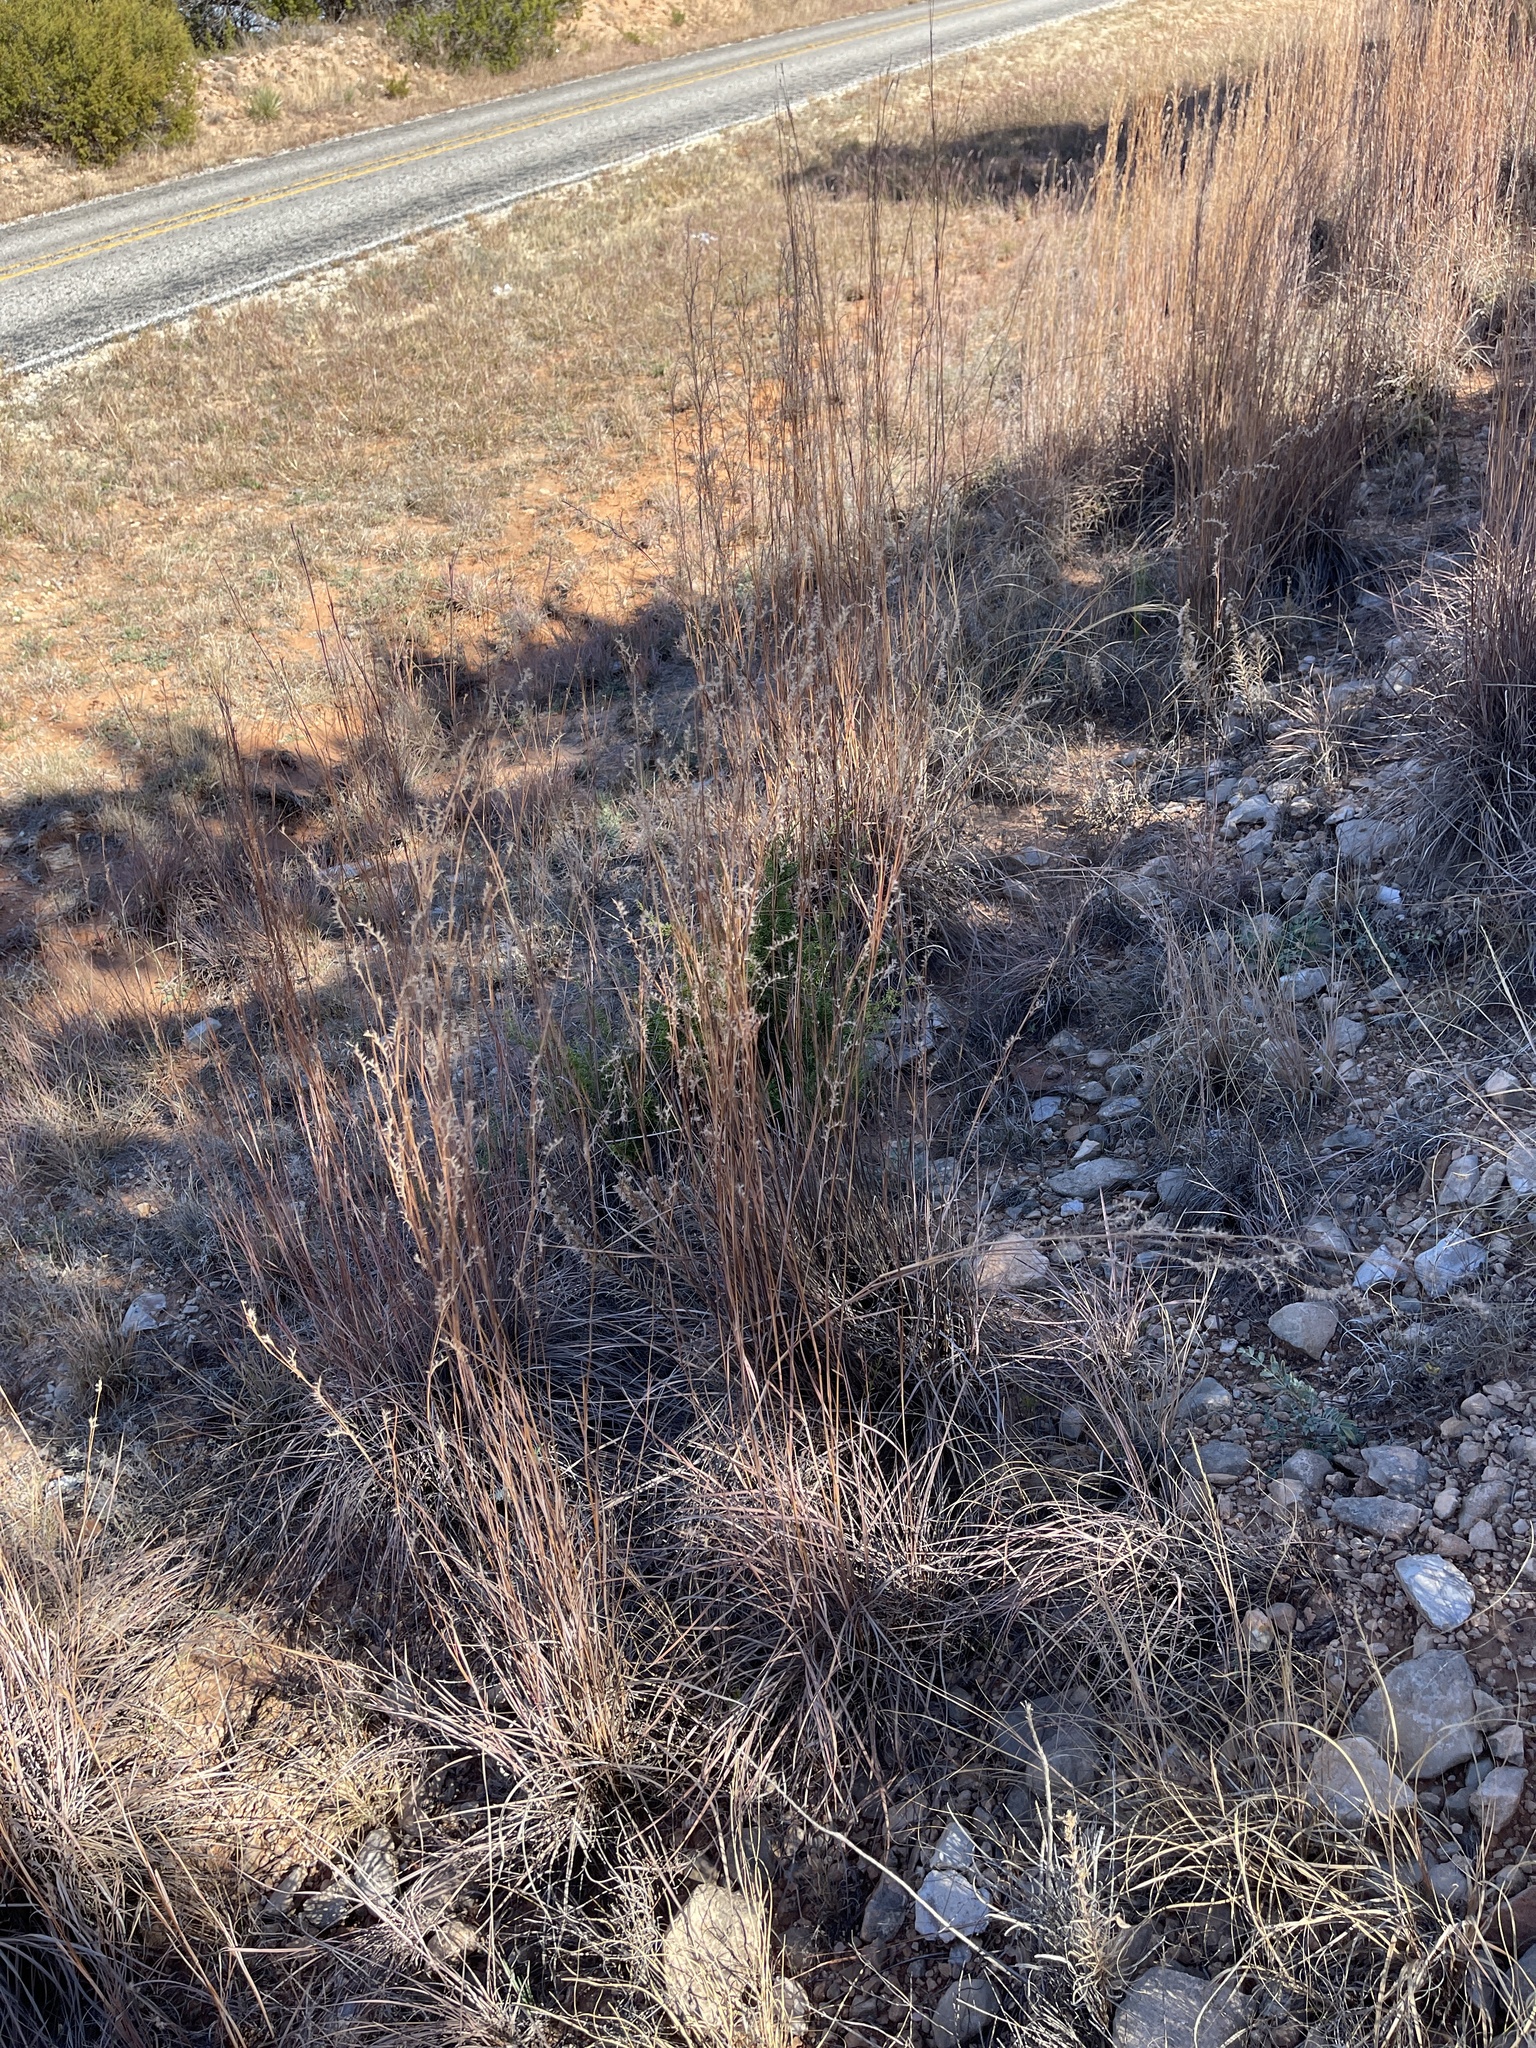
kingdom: Plantae
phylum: Tracheophyta
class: Liliopsida
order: Poales
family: Poaceae
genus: Schizachyrium
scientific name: Schizachyrium scoparium
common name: Little bluestem
